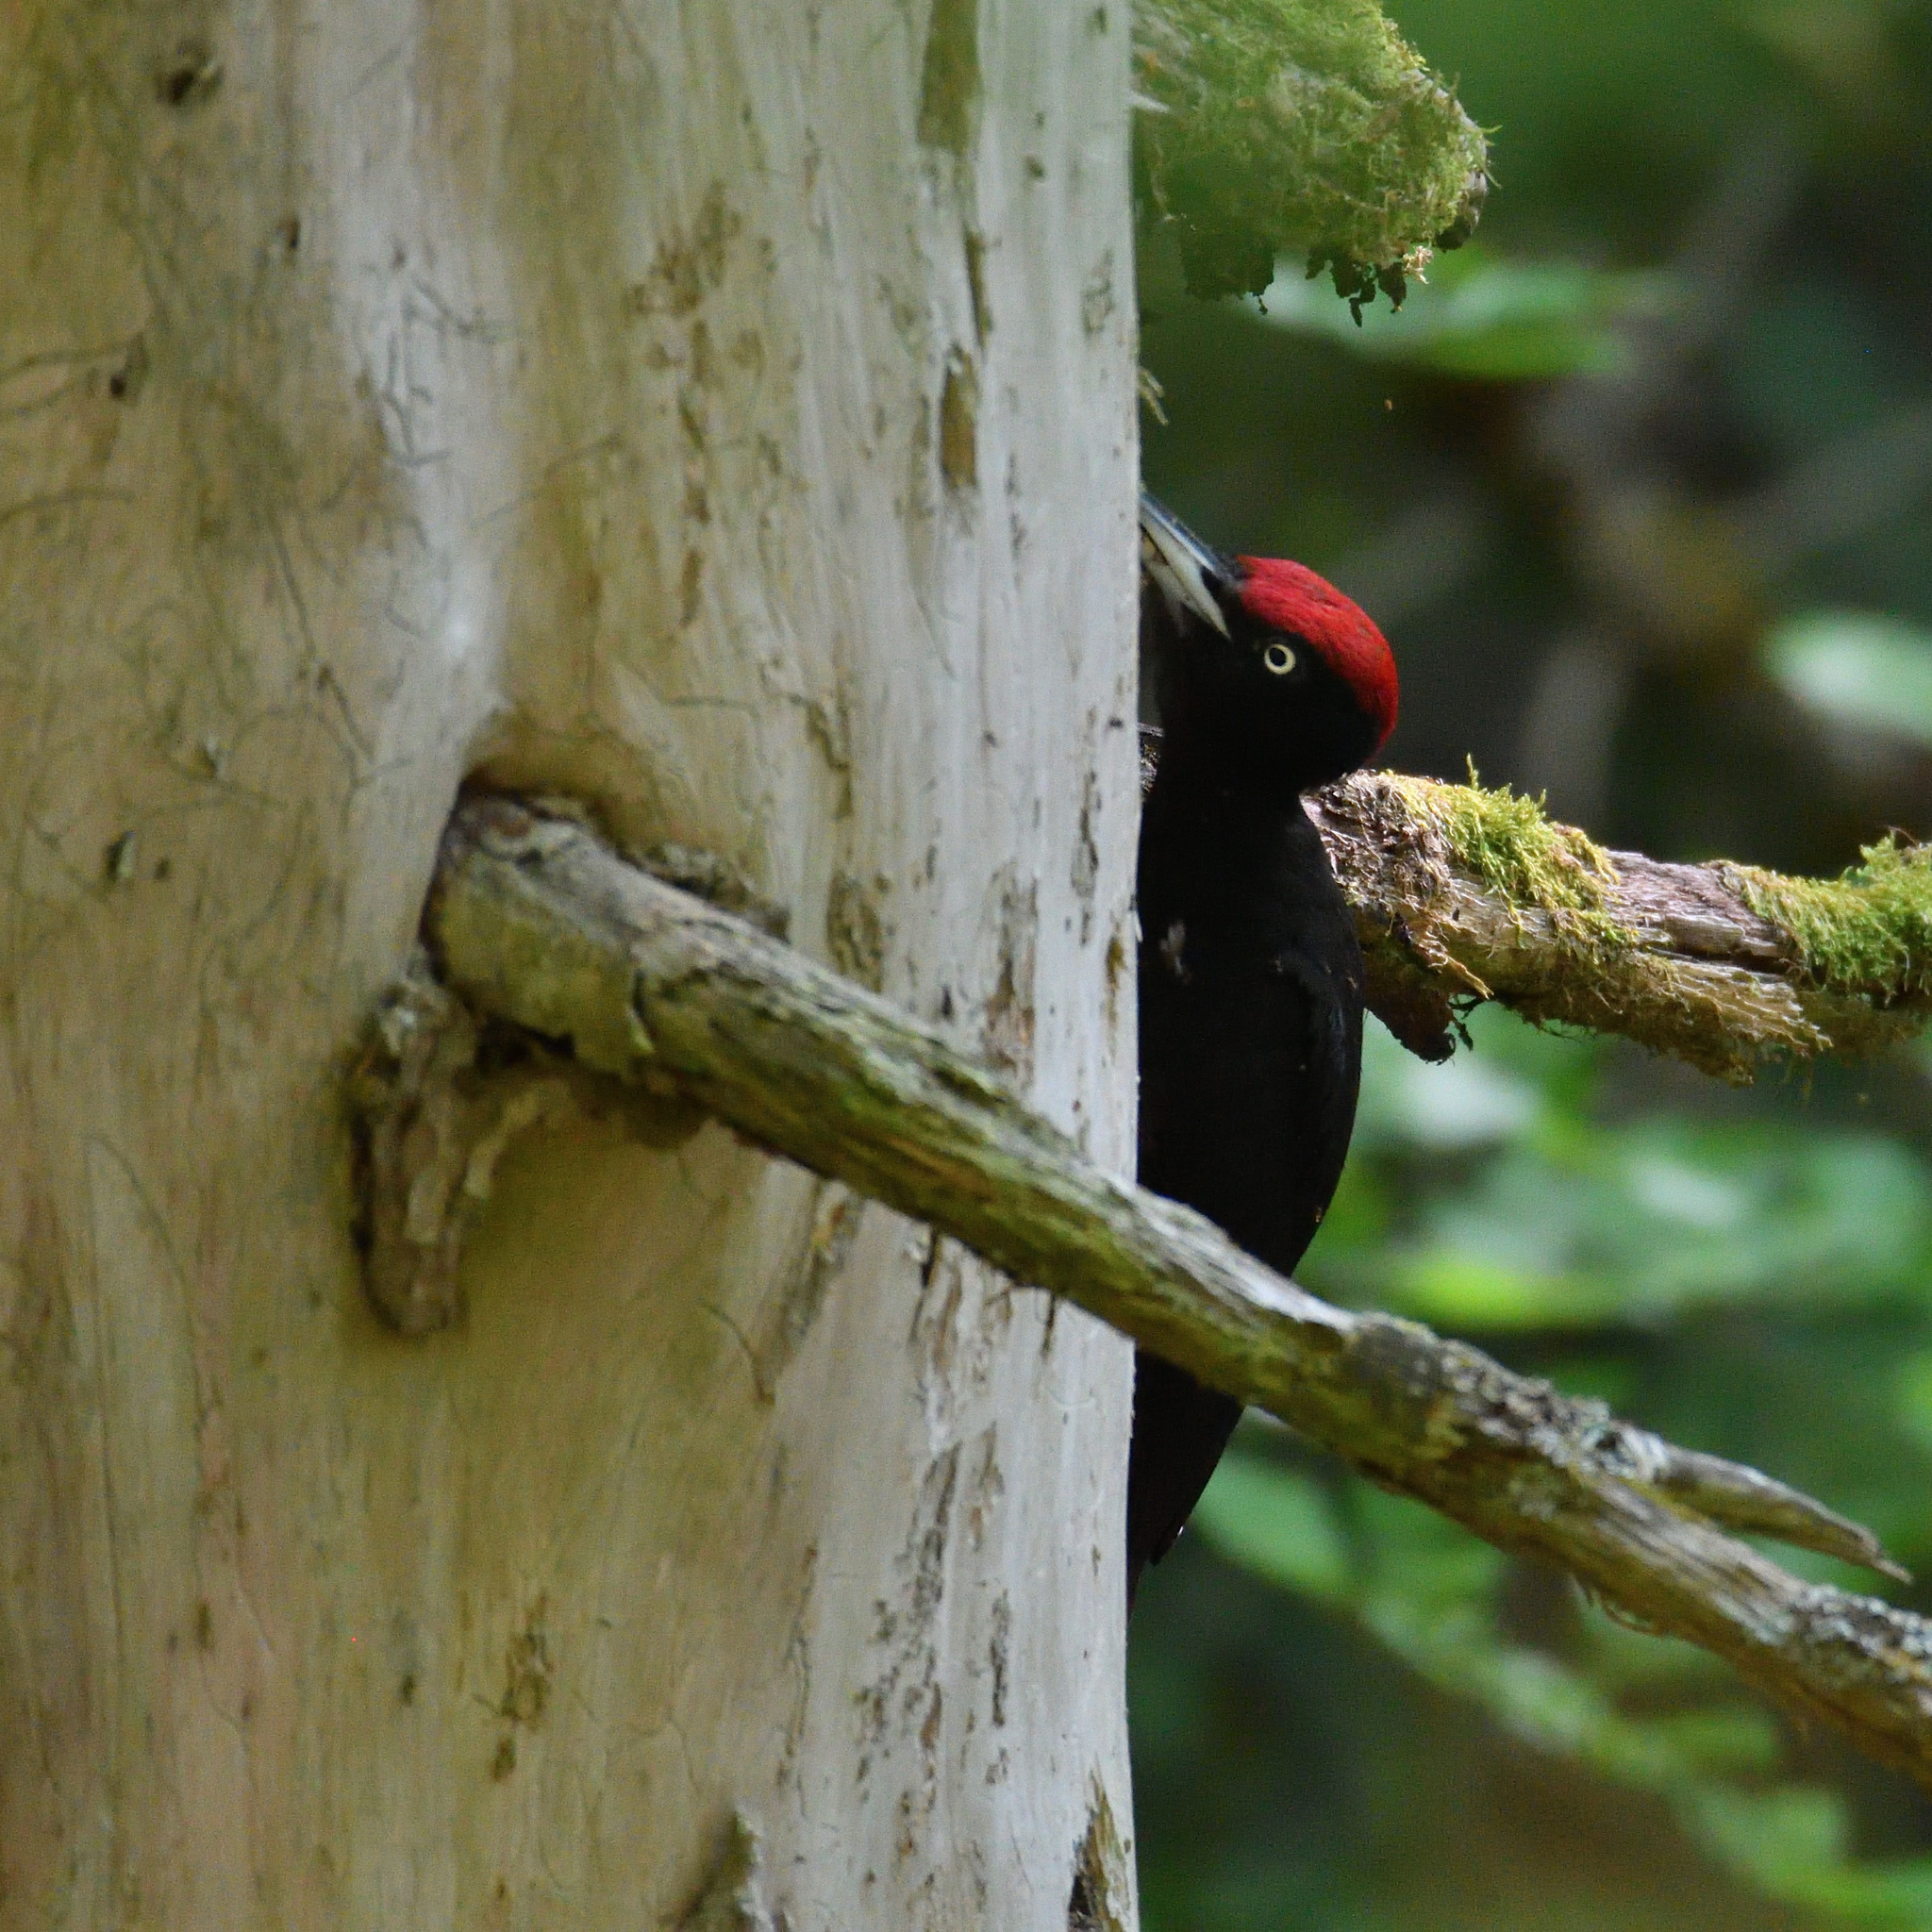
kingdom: Animalia
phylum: Chordata
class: Aves
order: Piciformes
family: Picidae
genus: Dryocopus
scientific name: Dryocopus martius
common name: Black woodpecker
